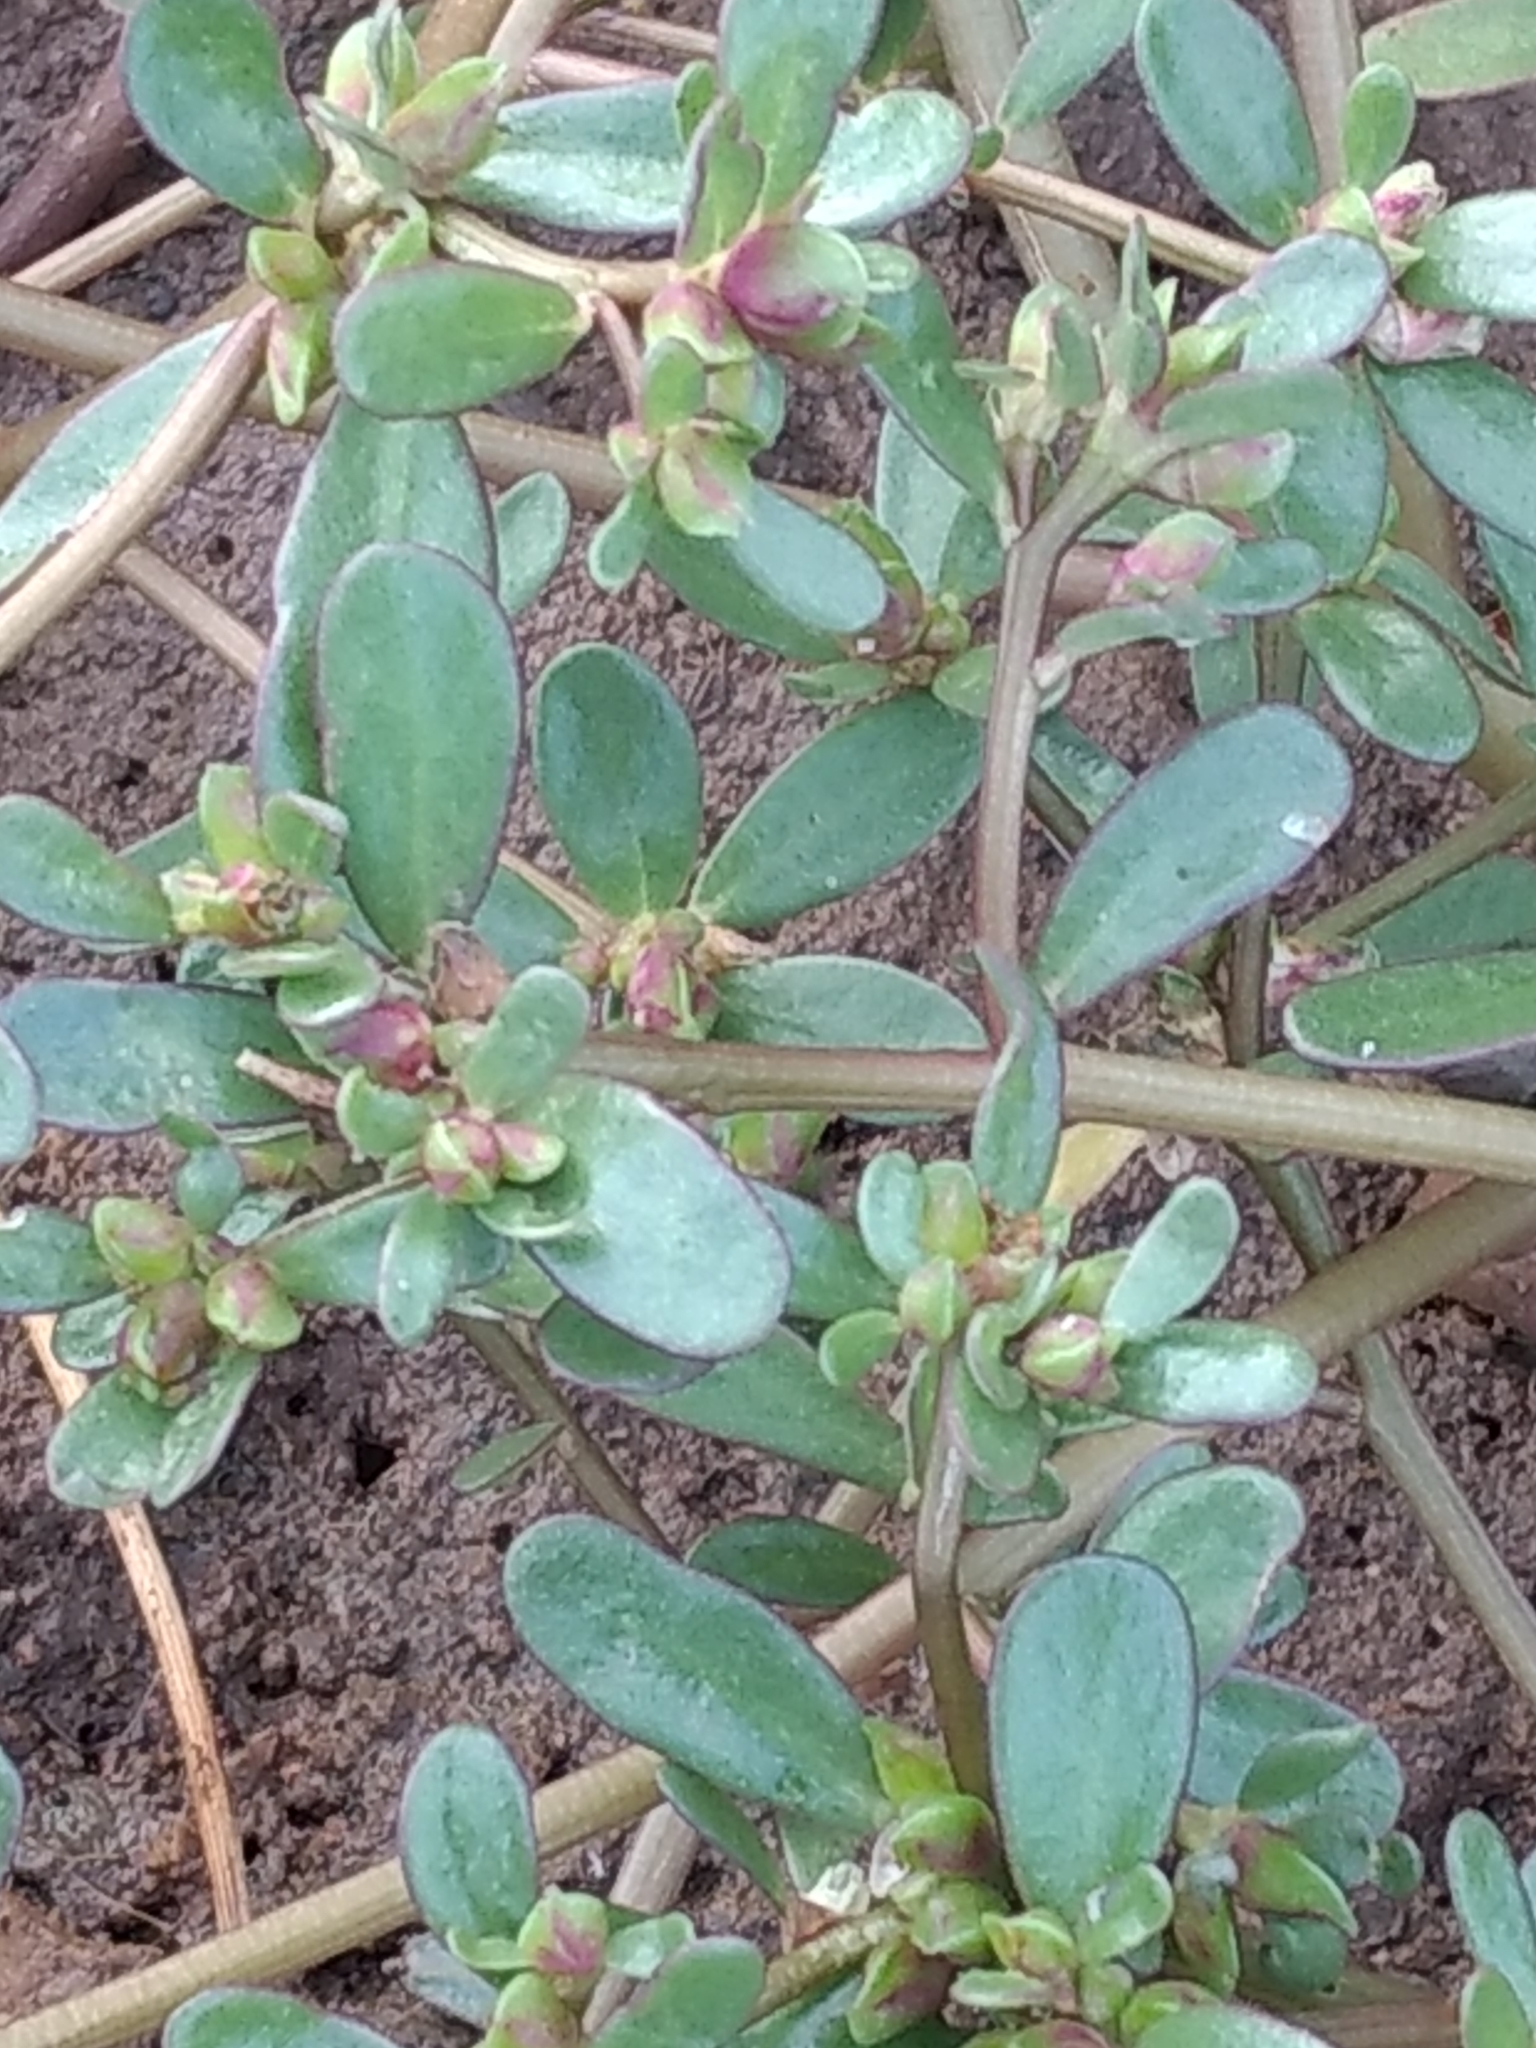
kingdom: Plantae
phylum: Tracheophyta
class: Magnoliopsida
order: Caryophyllales
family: Portulacaceae
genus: Portulaca
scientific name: Portulaca oleracea
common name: Common purslane
